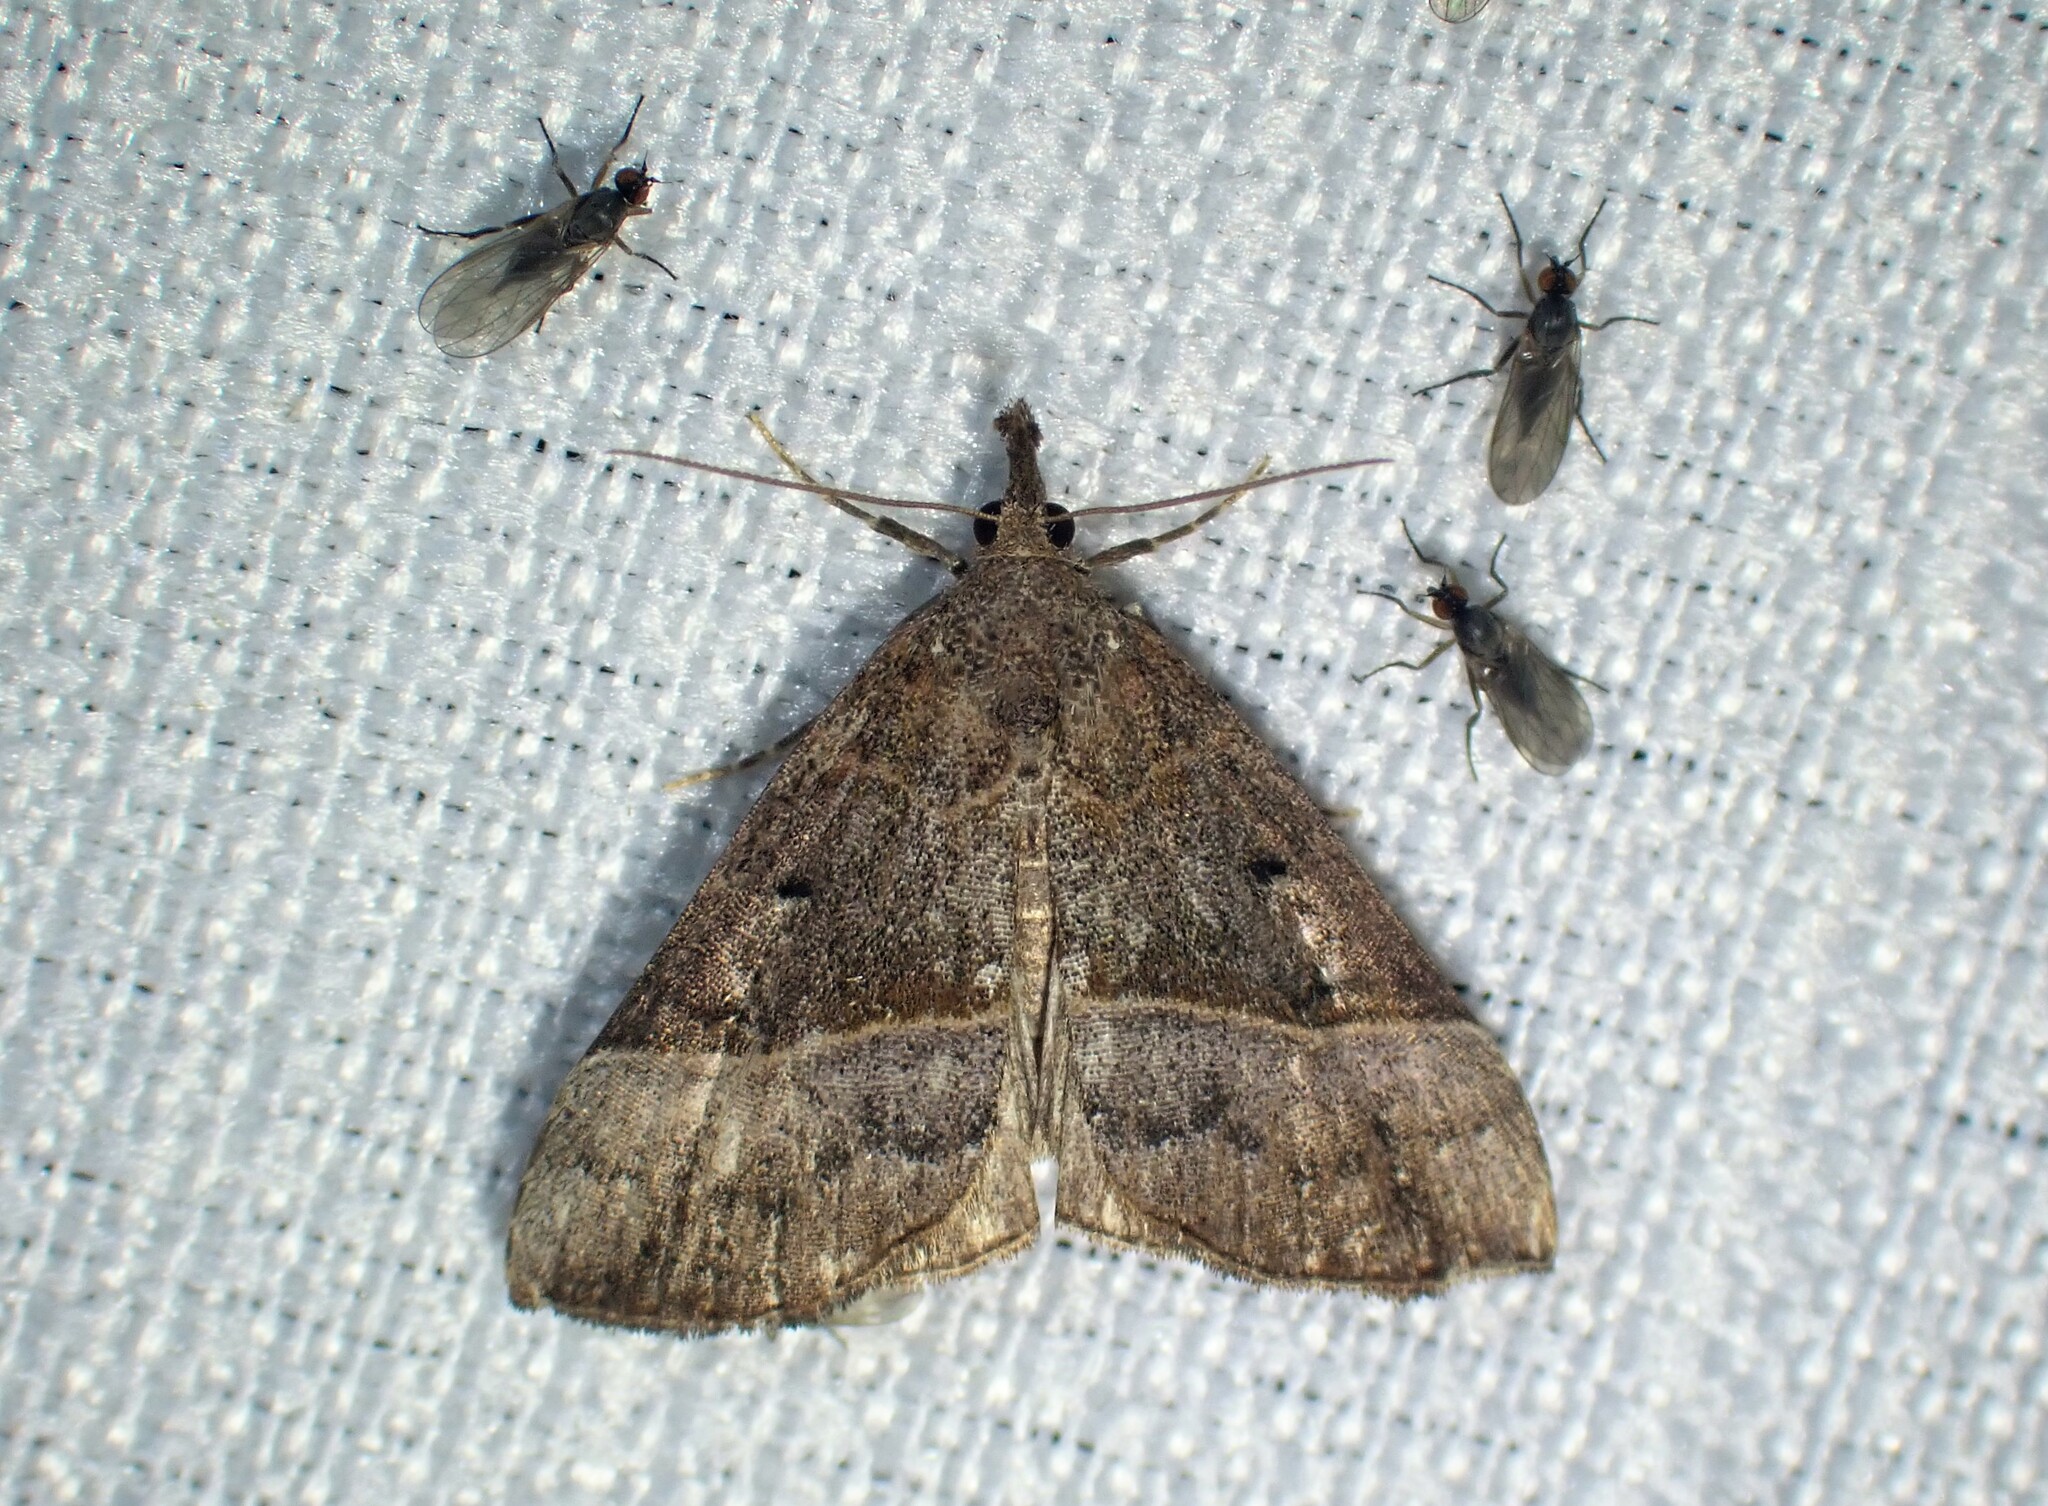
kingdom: Animalia
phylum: Arthropoda
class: Insecta
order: Lepidoptera
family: Erebidae
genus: Hypena
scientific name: Hypena eductalis
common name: Red-footed snout
